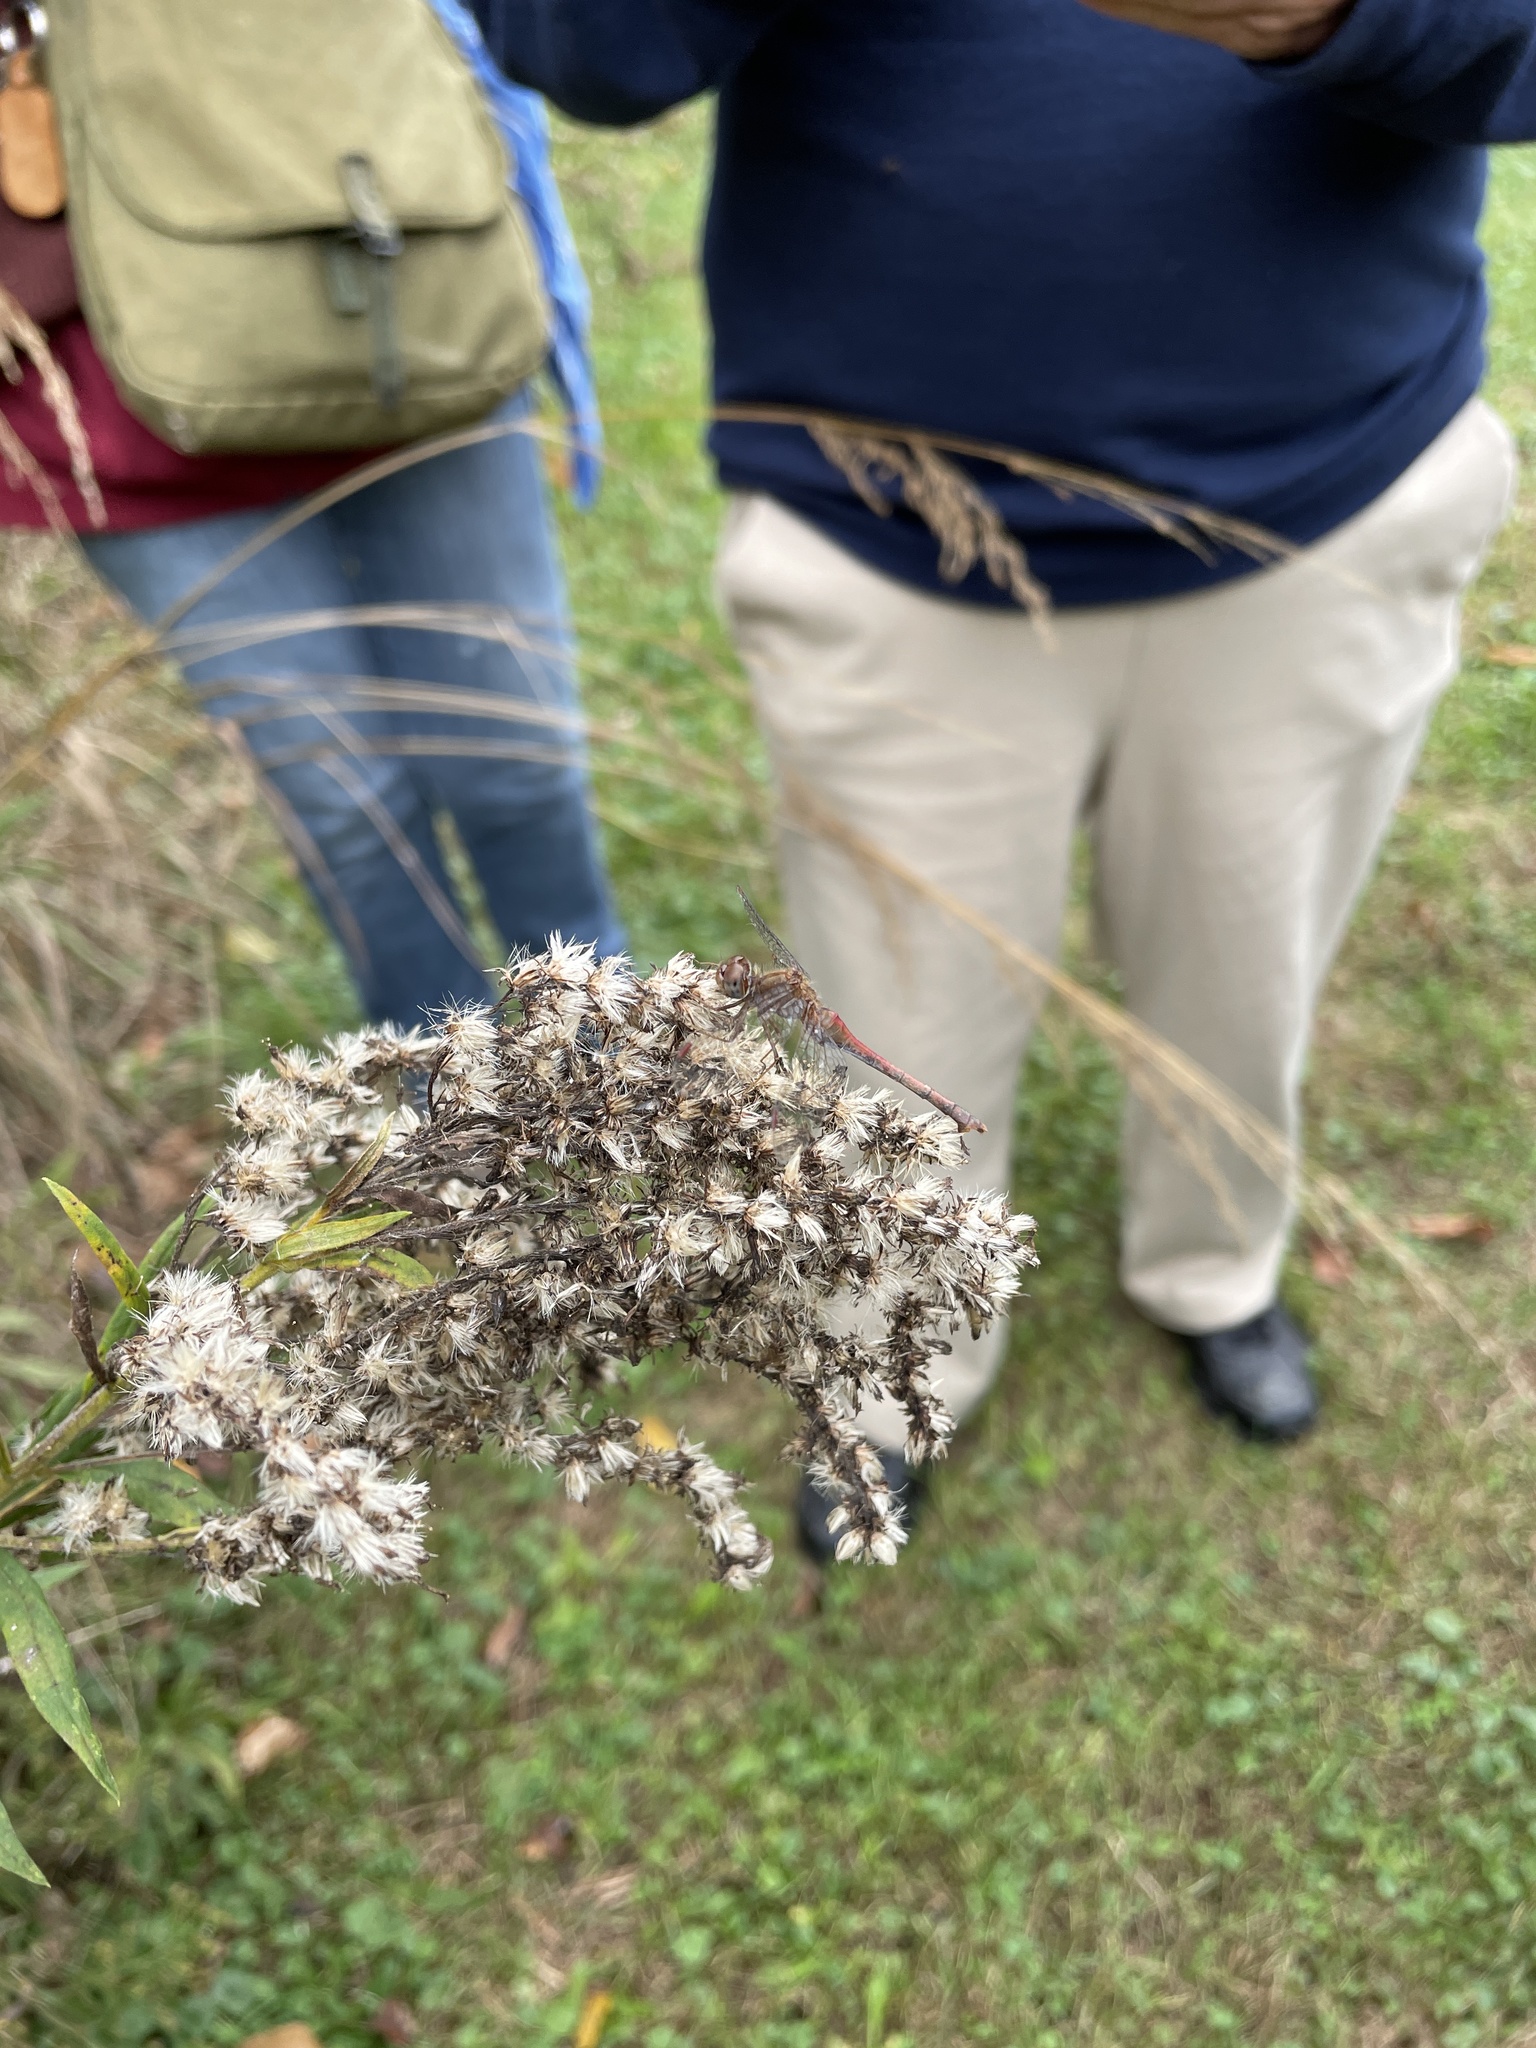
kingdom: Animalia
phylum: Arthropoda
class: Insecta
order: Odonata
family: Libellulidae
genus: Sympetrum
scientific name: Sympetrum vicinum
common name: Autumn meadowhawk
